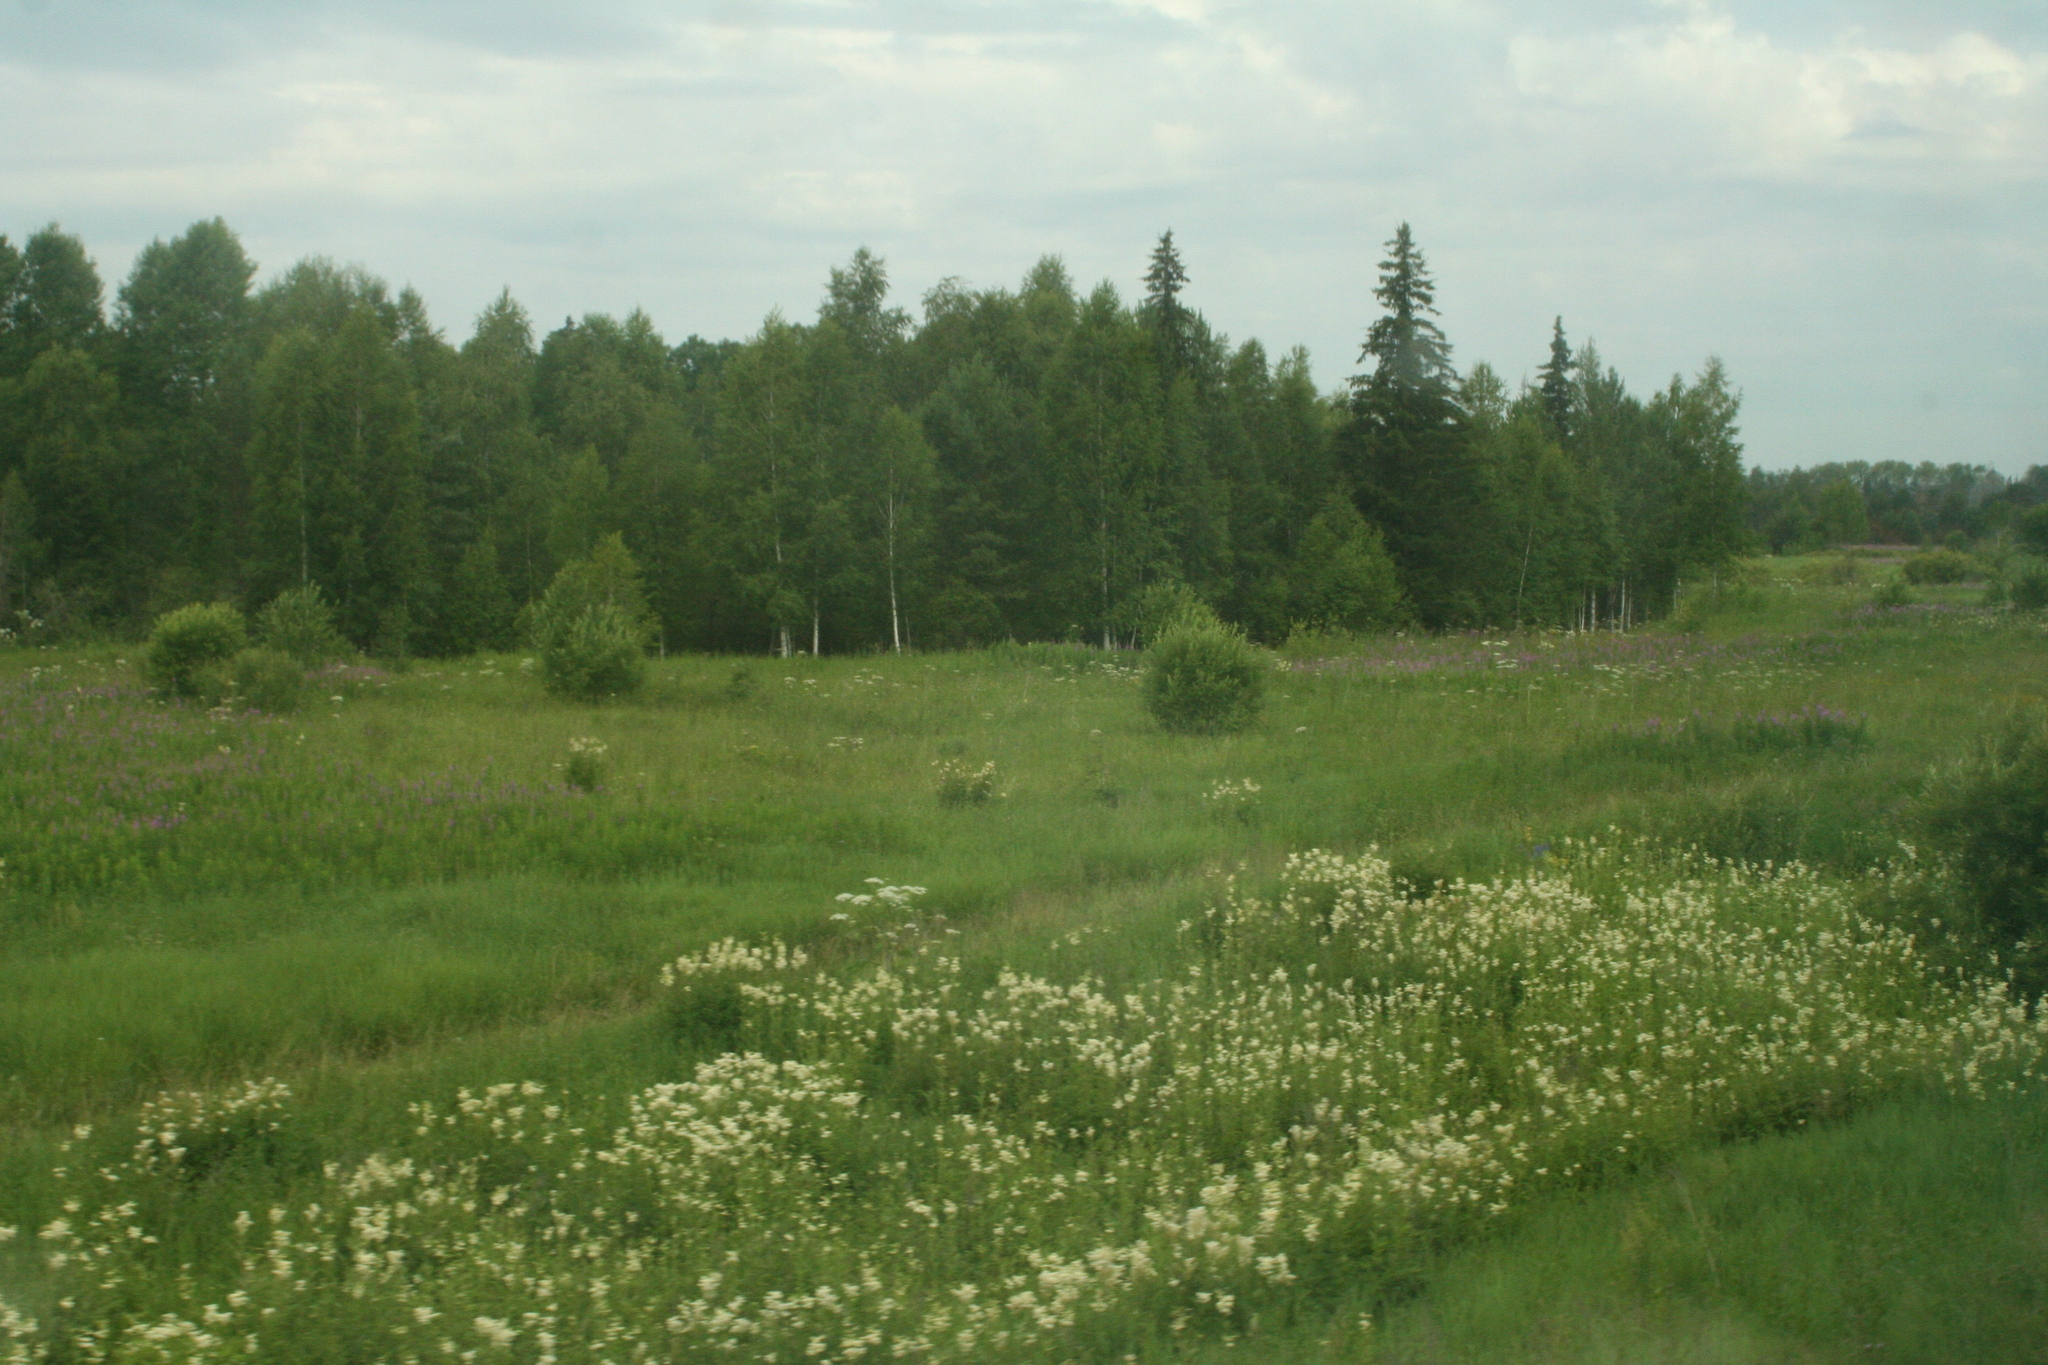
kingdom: Plantae
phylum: Tracheophyta
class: Pinopsida
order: Pinales
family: Pinaceae
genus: Picea
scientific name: Picea obovata
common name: Siberian spruce
